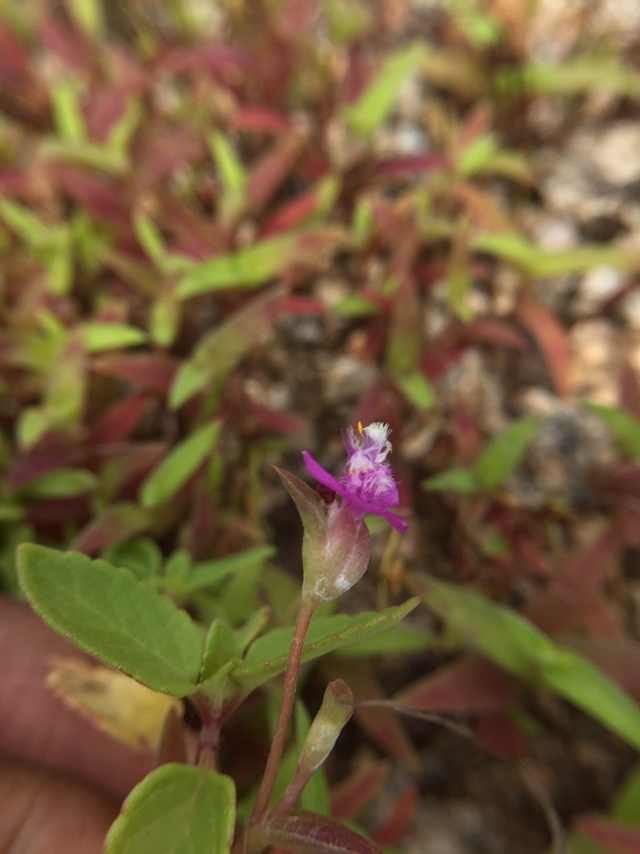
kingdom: Plantae
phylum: Tracheophyta
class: Liliopsida
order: Commelinales
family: Commelinaceae
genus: Cyanotis
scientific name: Cyanotis fasciculata
